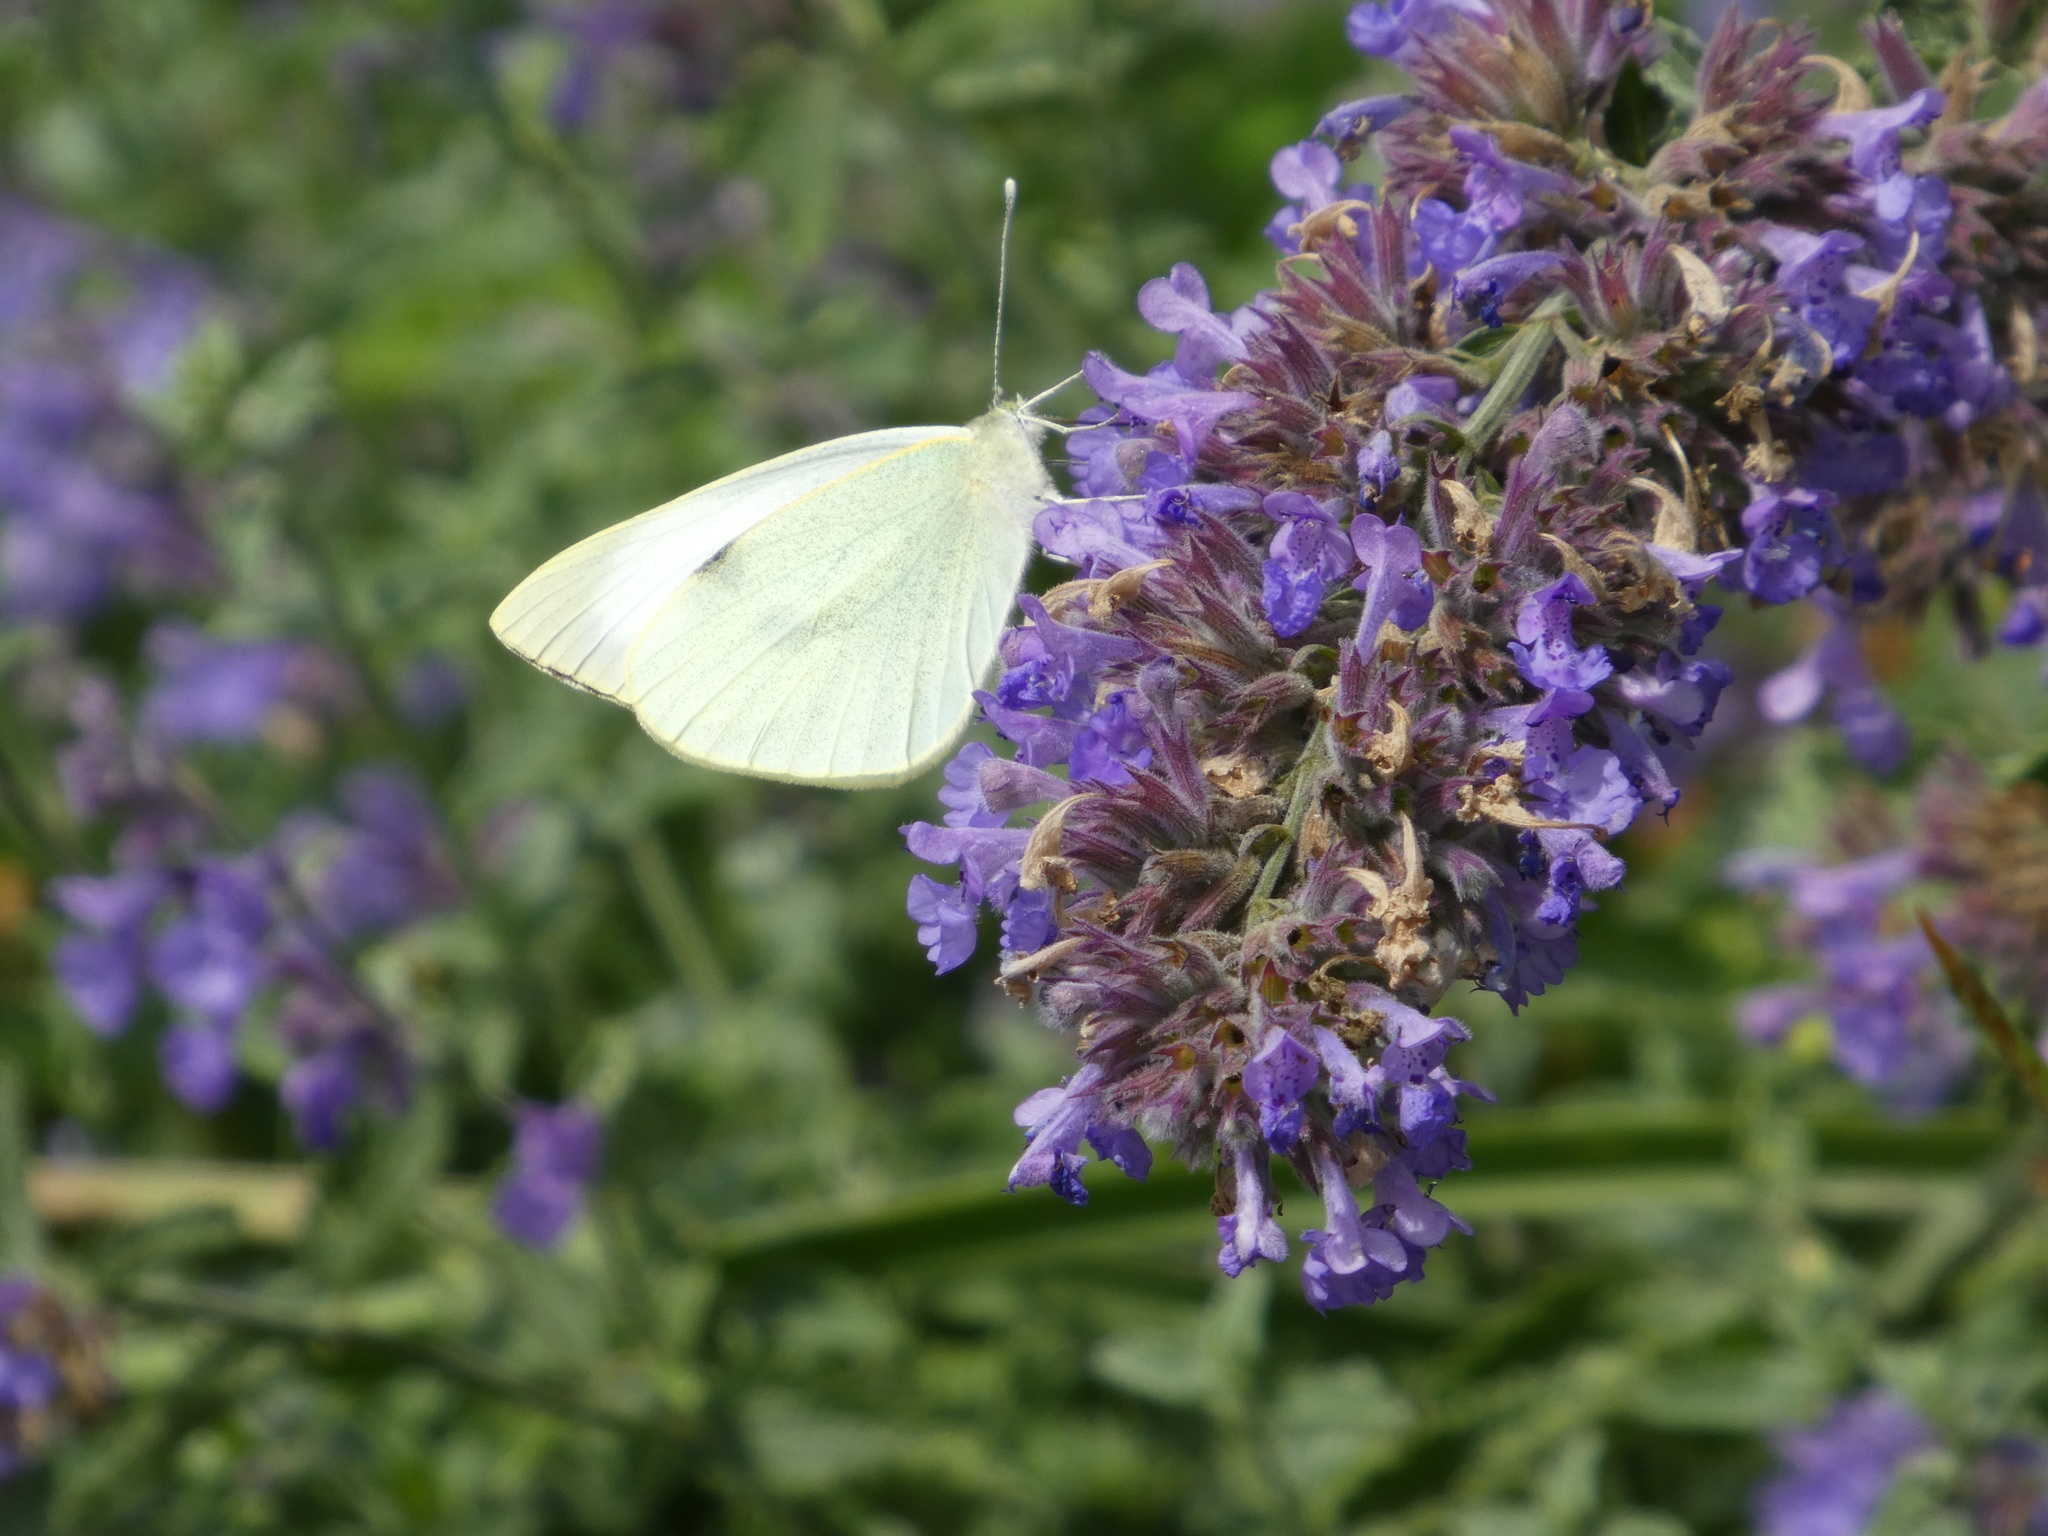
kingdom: Animalia
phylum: Arthropoda
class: Insecta
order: Lepidoptera
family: Pieridae
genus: Pieris
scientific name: Pieris brassicae
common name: Large white
